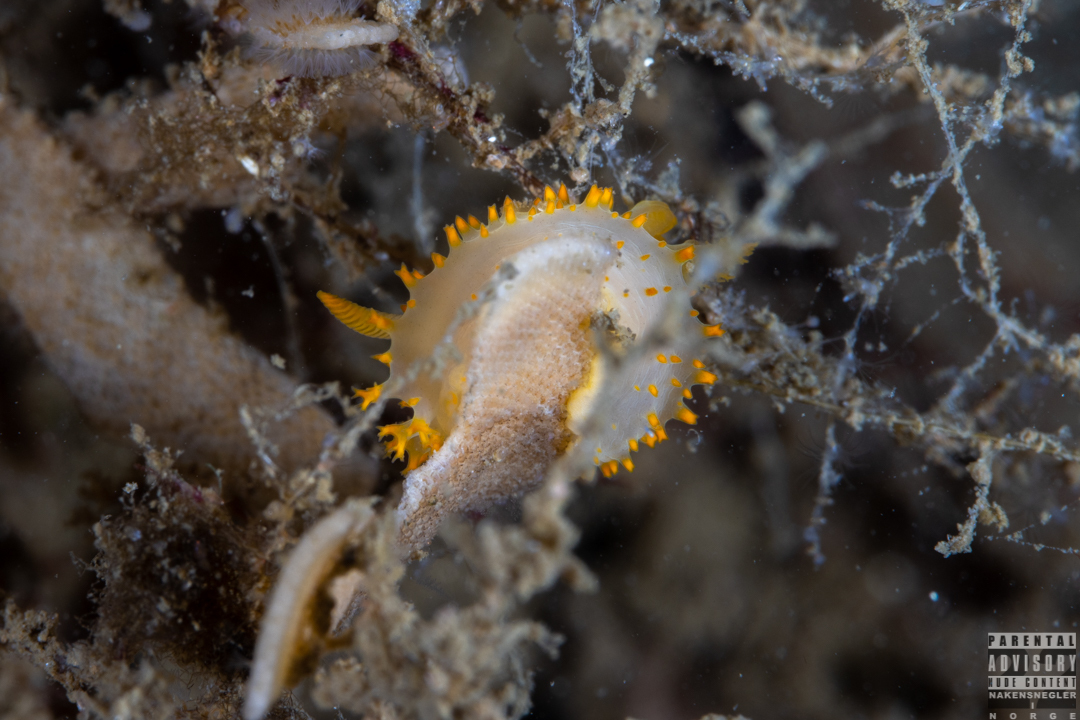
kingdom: Animalia
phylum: Mollusca
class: Gastropoda
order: Nudibranchia
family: Polyceridae
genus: Crimora
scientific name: Crimora papillata
